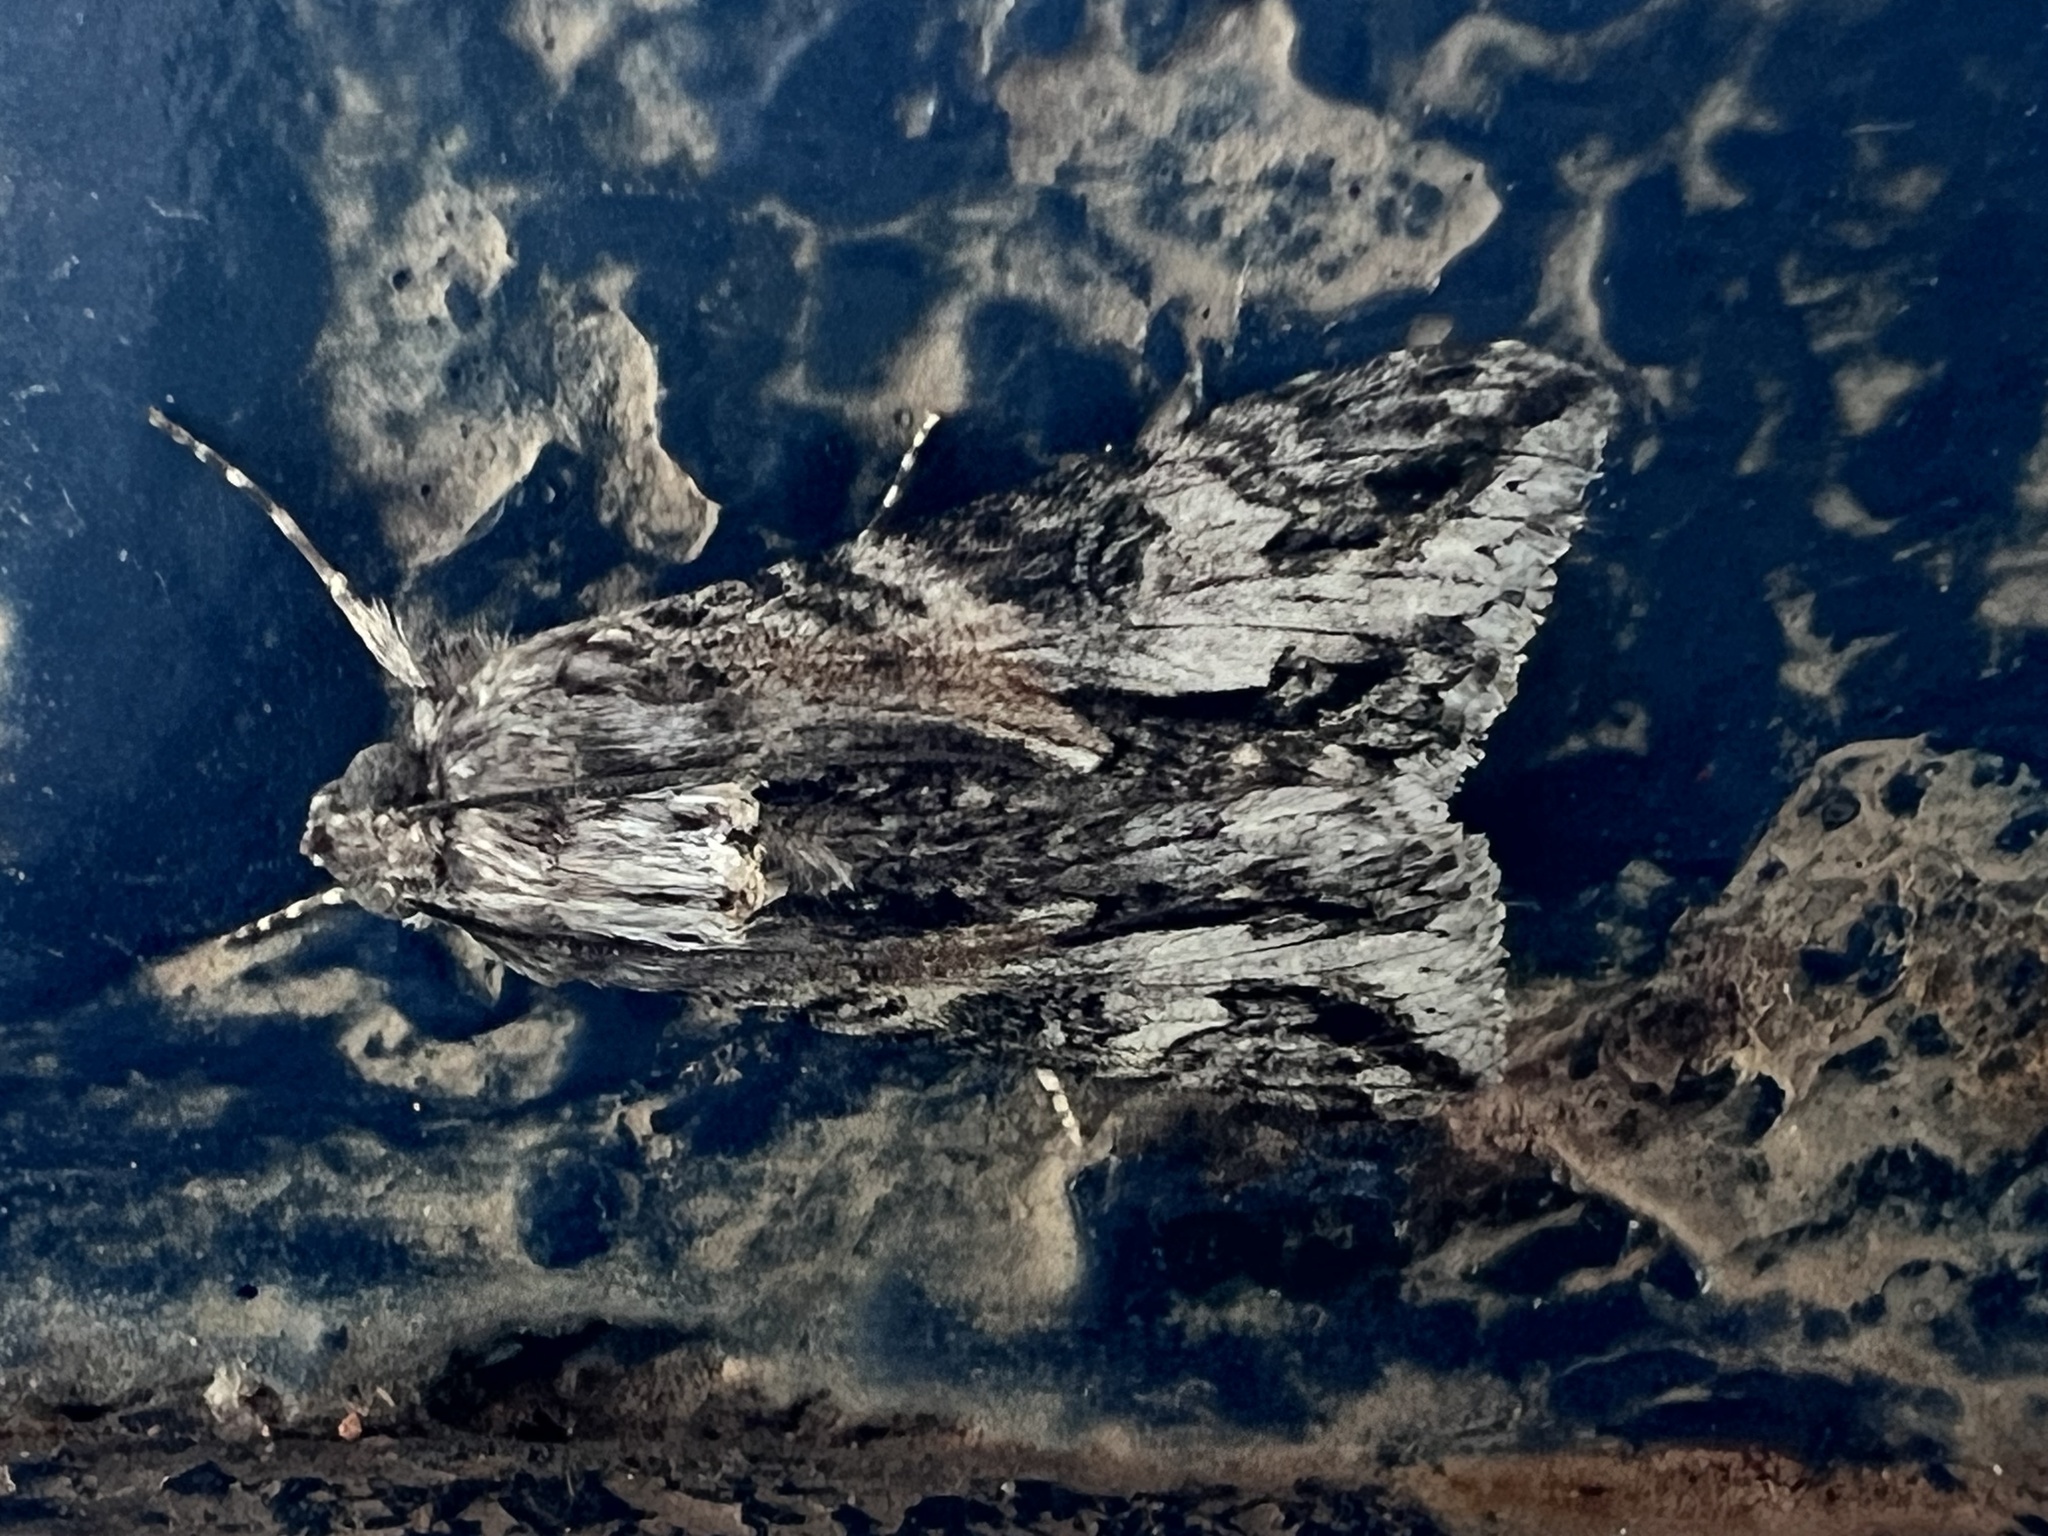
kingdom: Animalia
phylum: Arthropoda
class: Insecta
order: Lepidoptera
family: Erebidae
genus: Melipotis
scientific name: Melipotis jucunda
